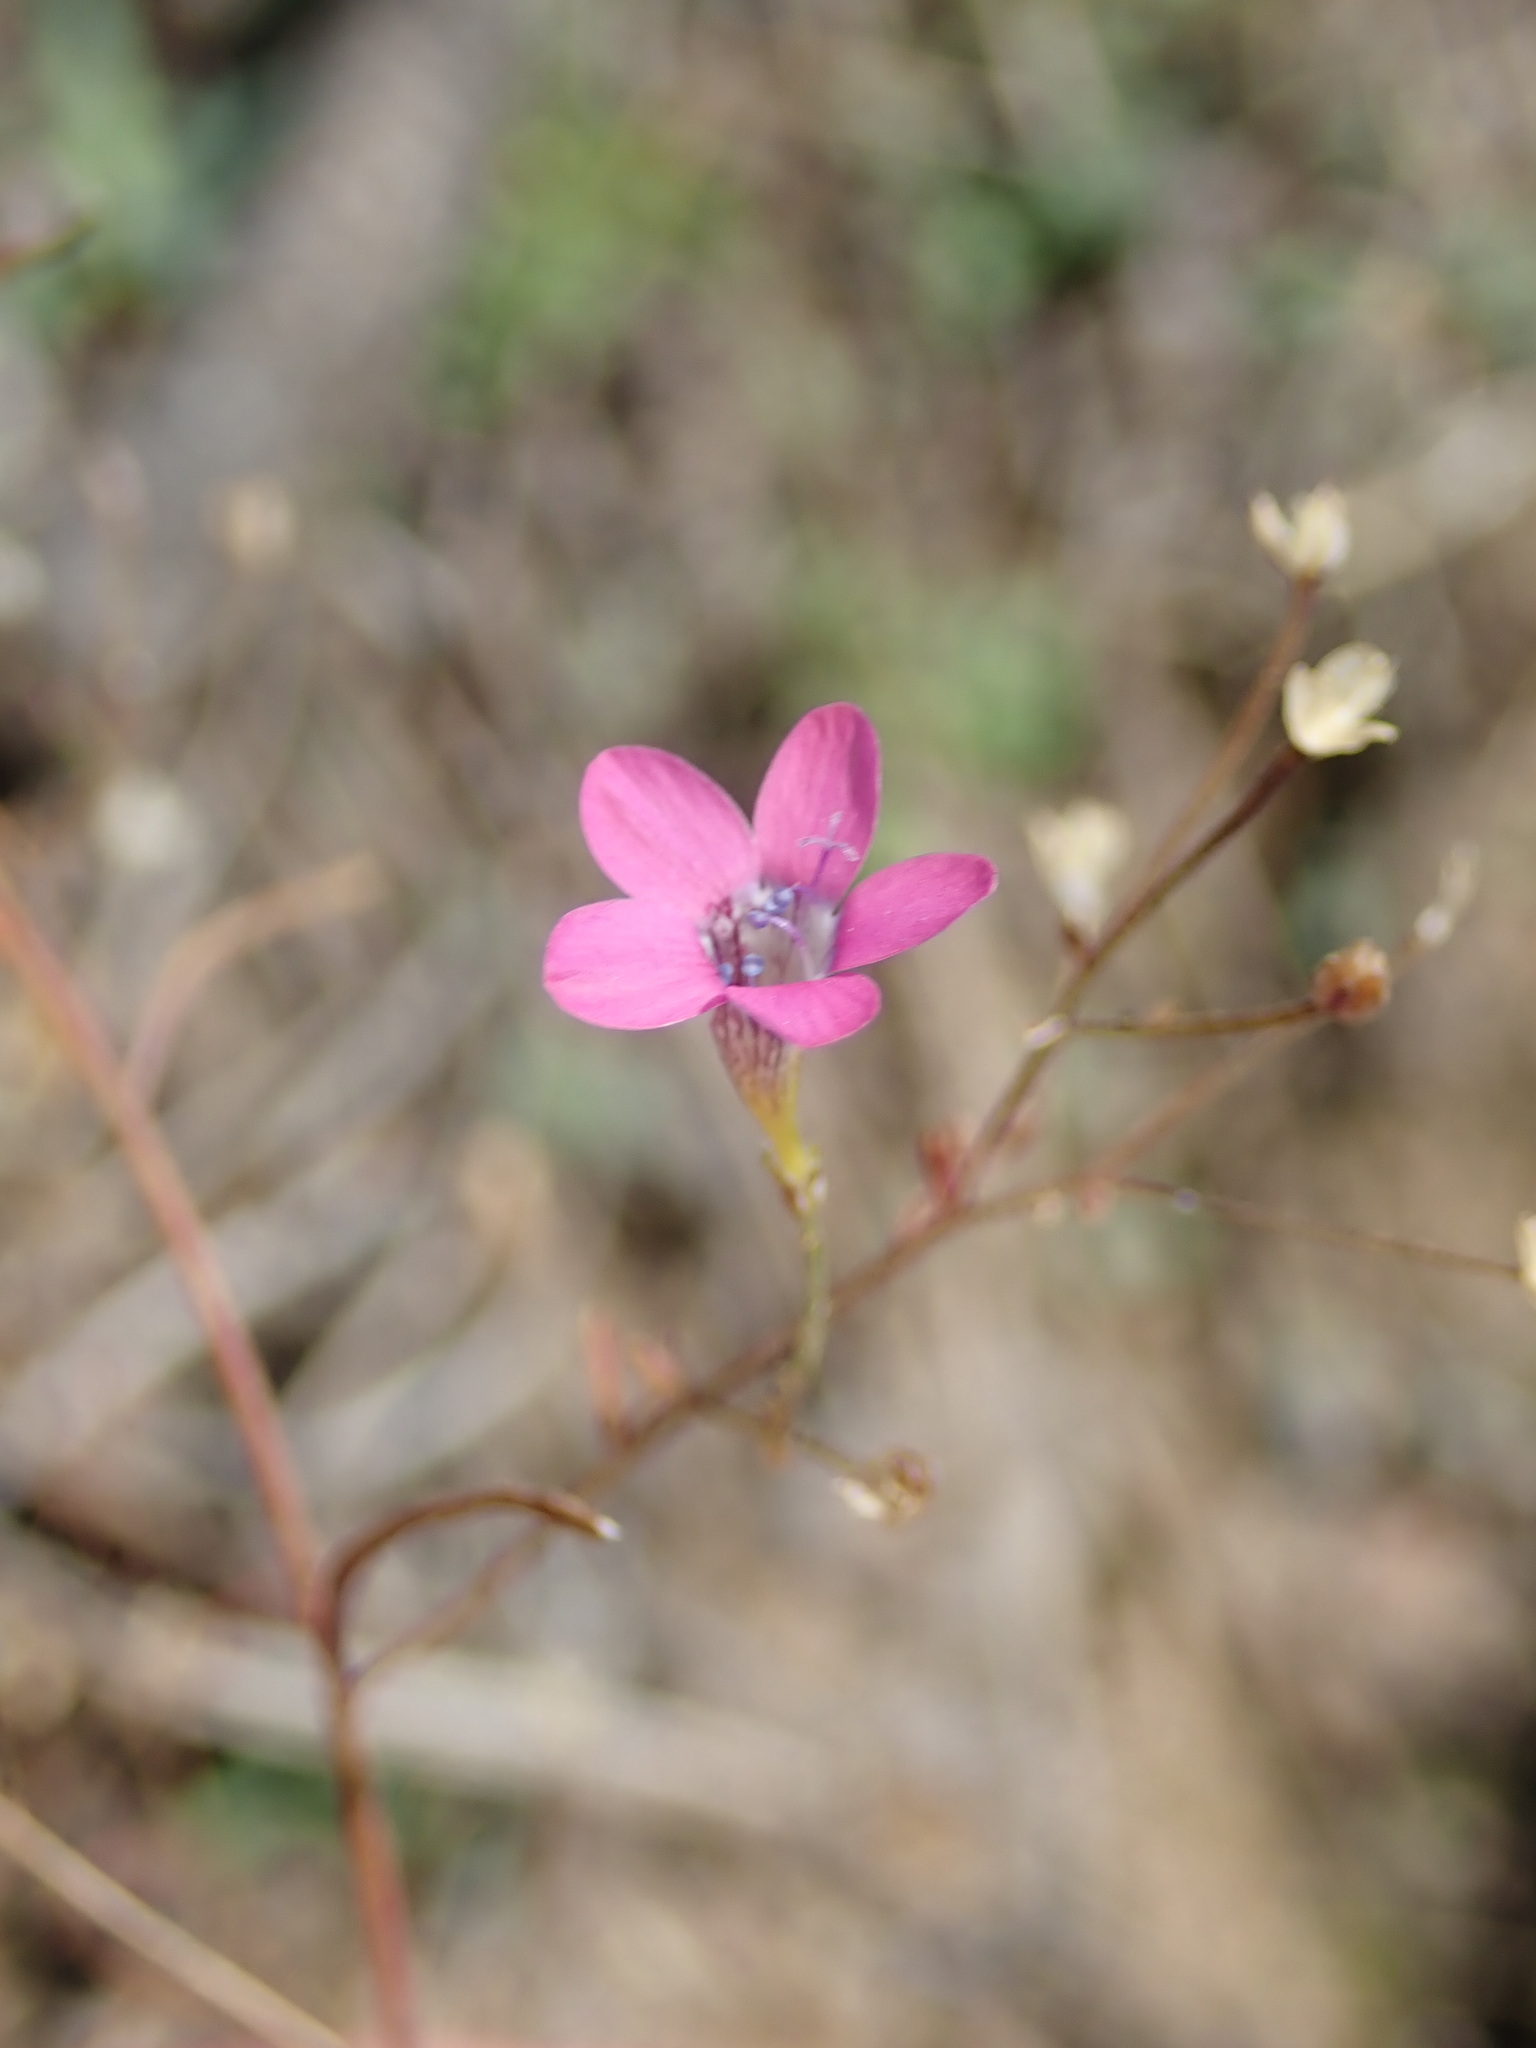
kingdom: Plantae
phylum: Tracheophyta
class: Magnoliopsida
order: Ericales
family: Polemoniaceae
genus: Navarretia
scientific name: Navarretia leptalea
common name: Bridges' pincushionplant
